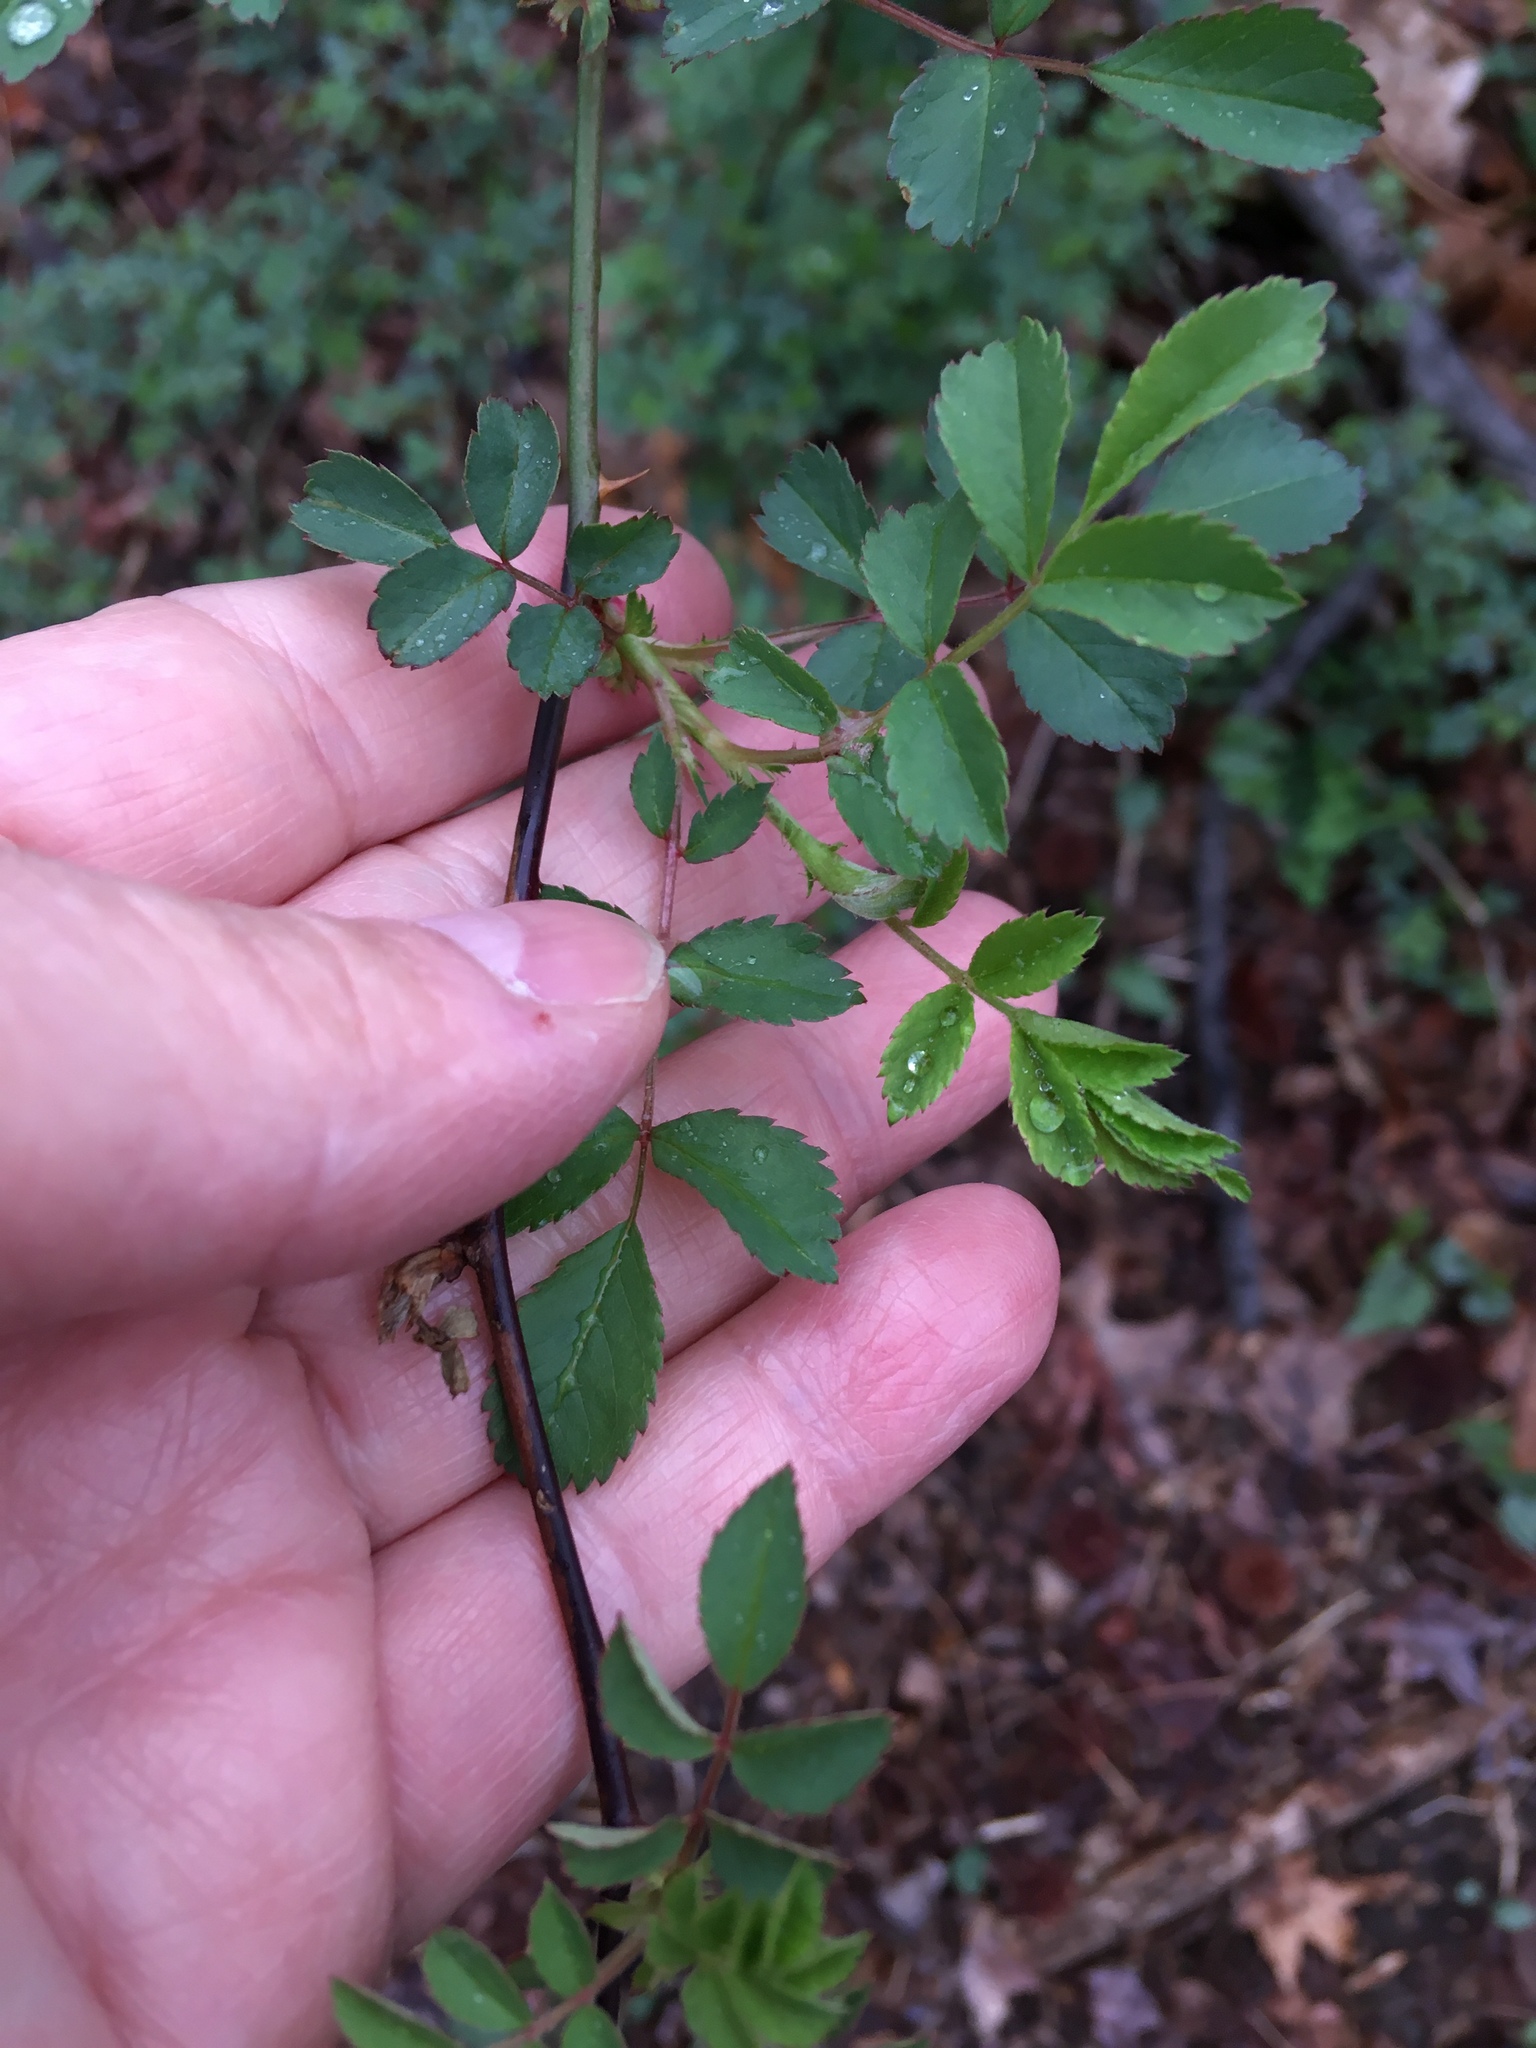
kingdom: Plantae
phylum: Tracheophyta
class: Magnoliopsida
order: Rosales
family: Rosaceae
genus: Rosa
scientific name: Rosa multiflora
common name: Multiflora rose
